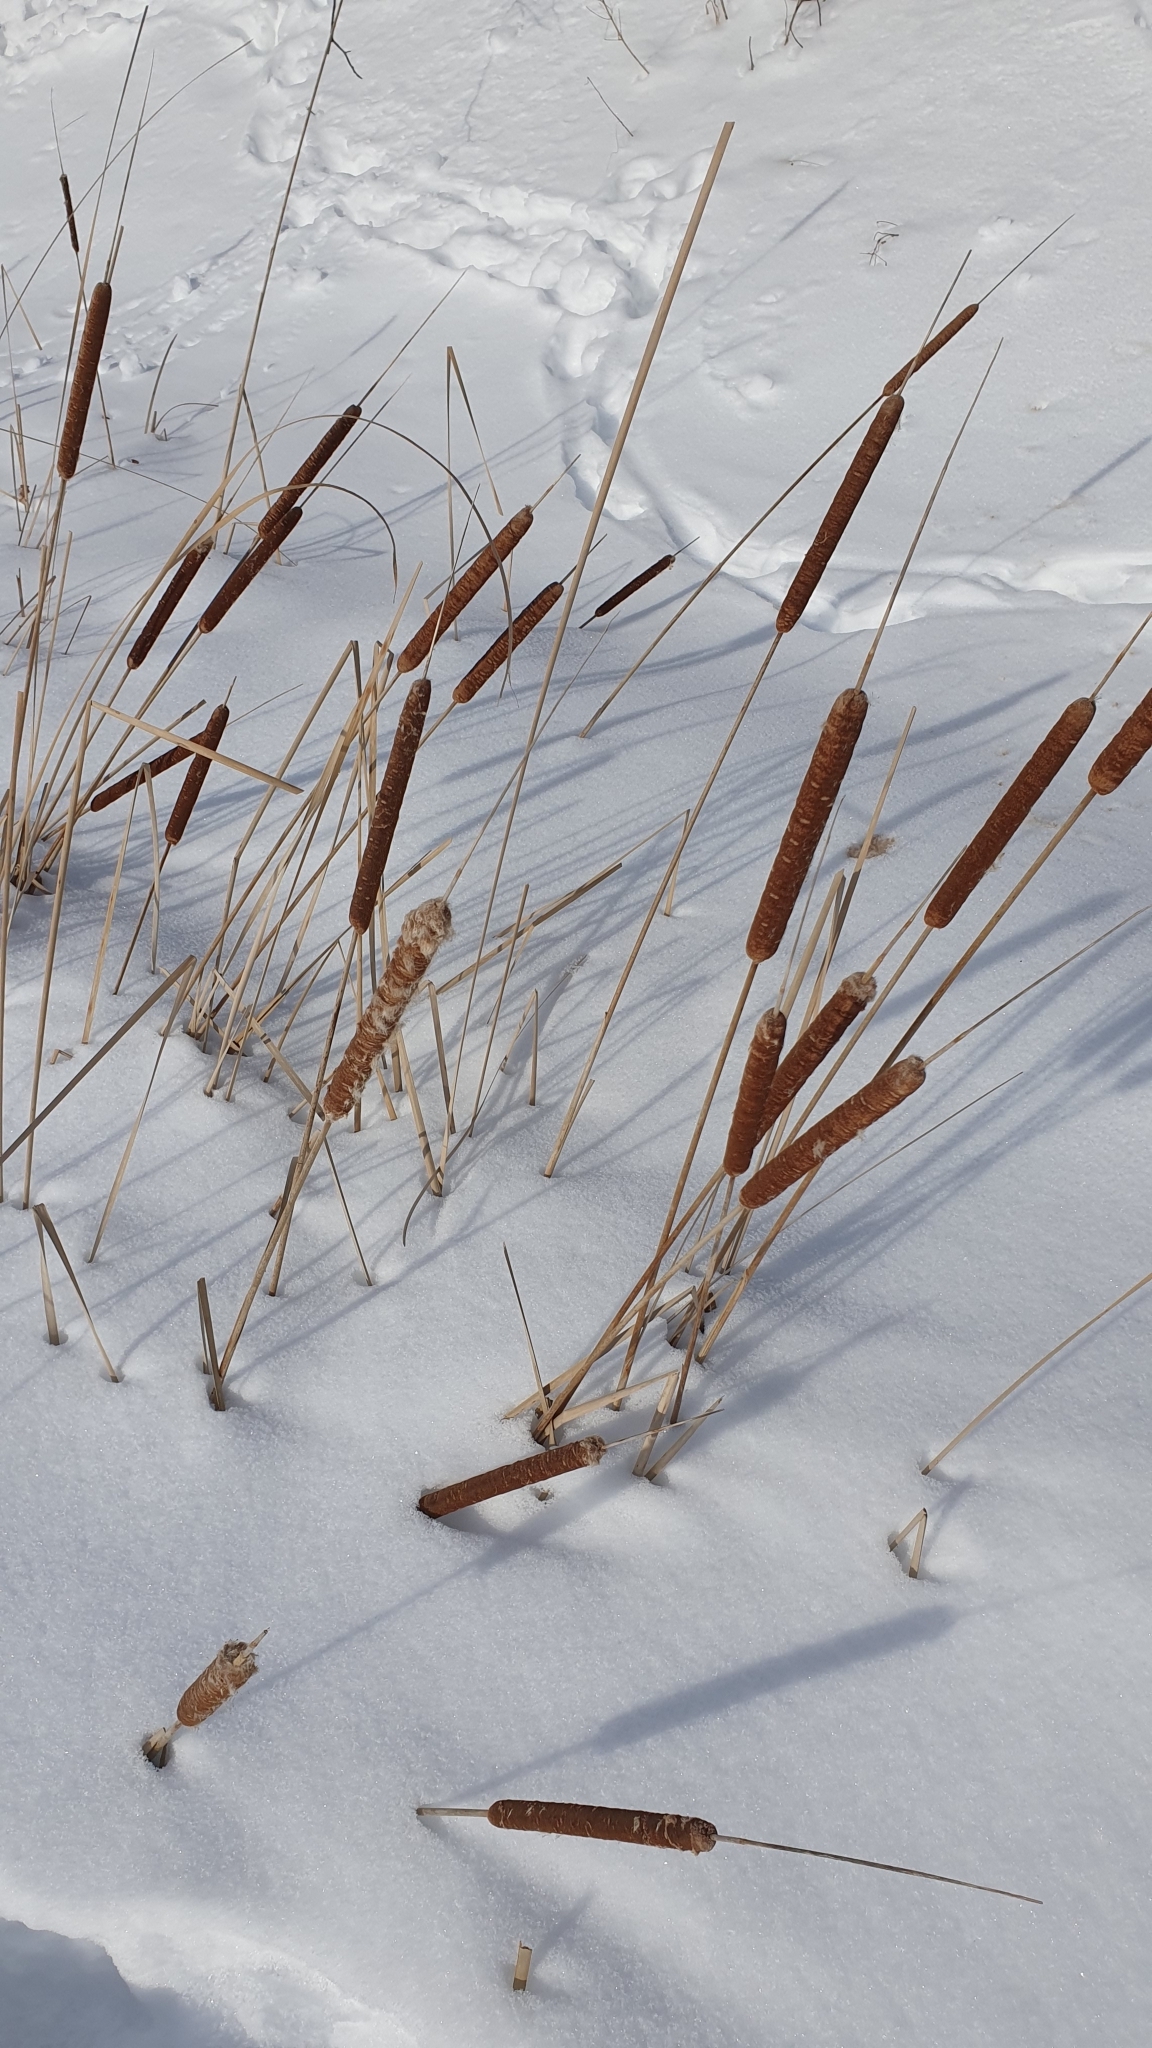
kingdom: Plantae
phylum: Tracheophyta
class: Liliopsida
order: Poales
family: Typhaceae
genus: Typha
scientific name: Typha angustifolia
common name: Lesser bulrush
